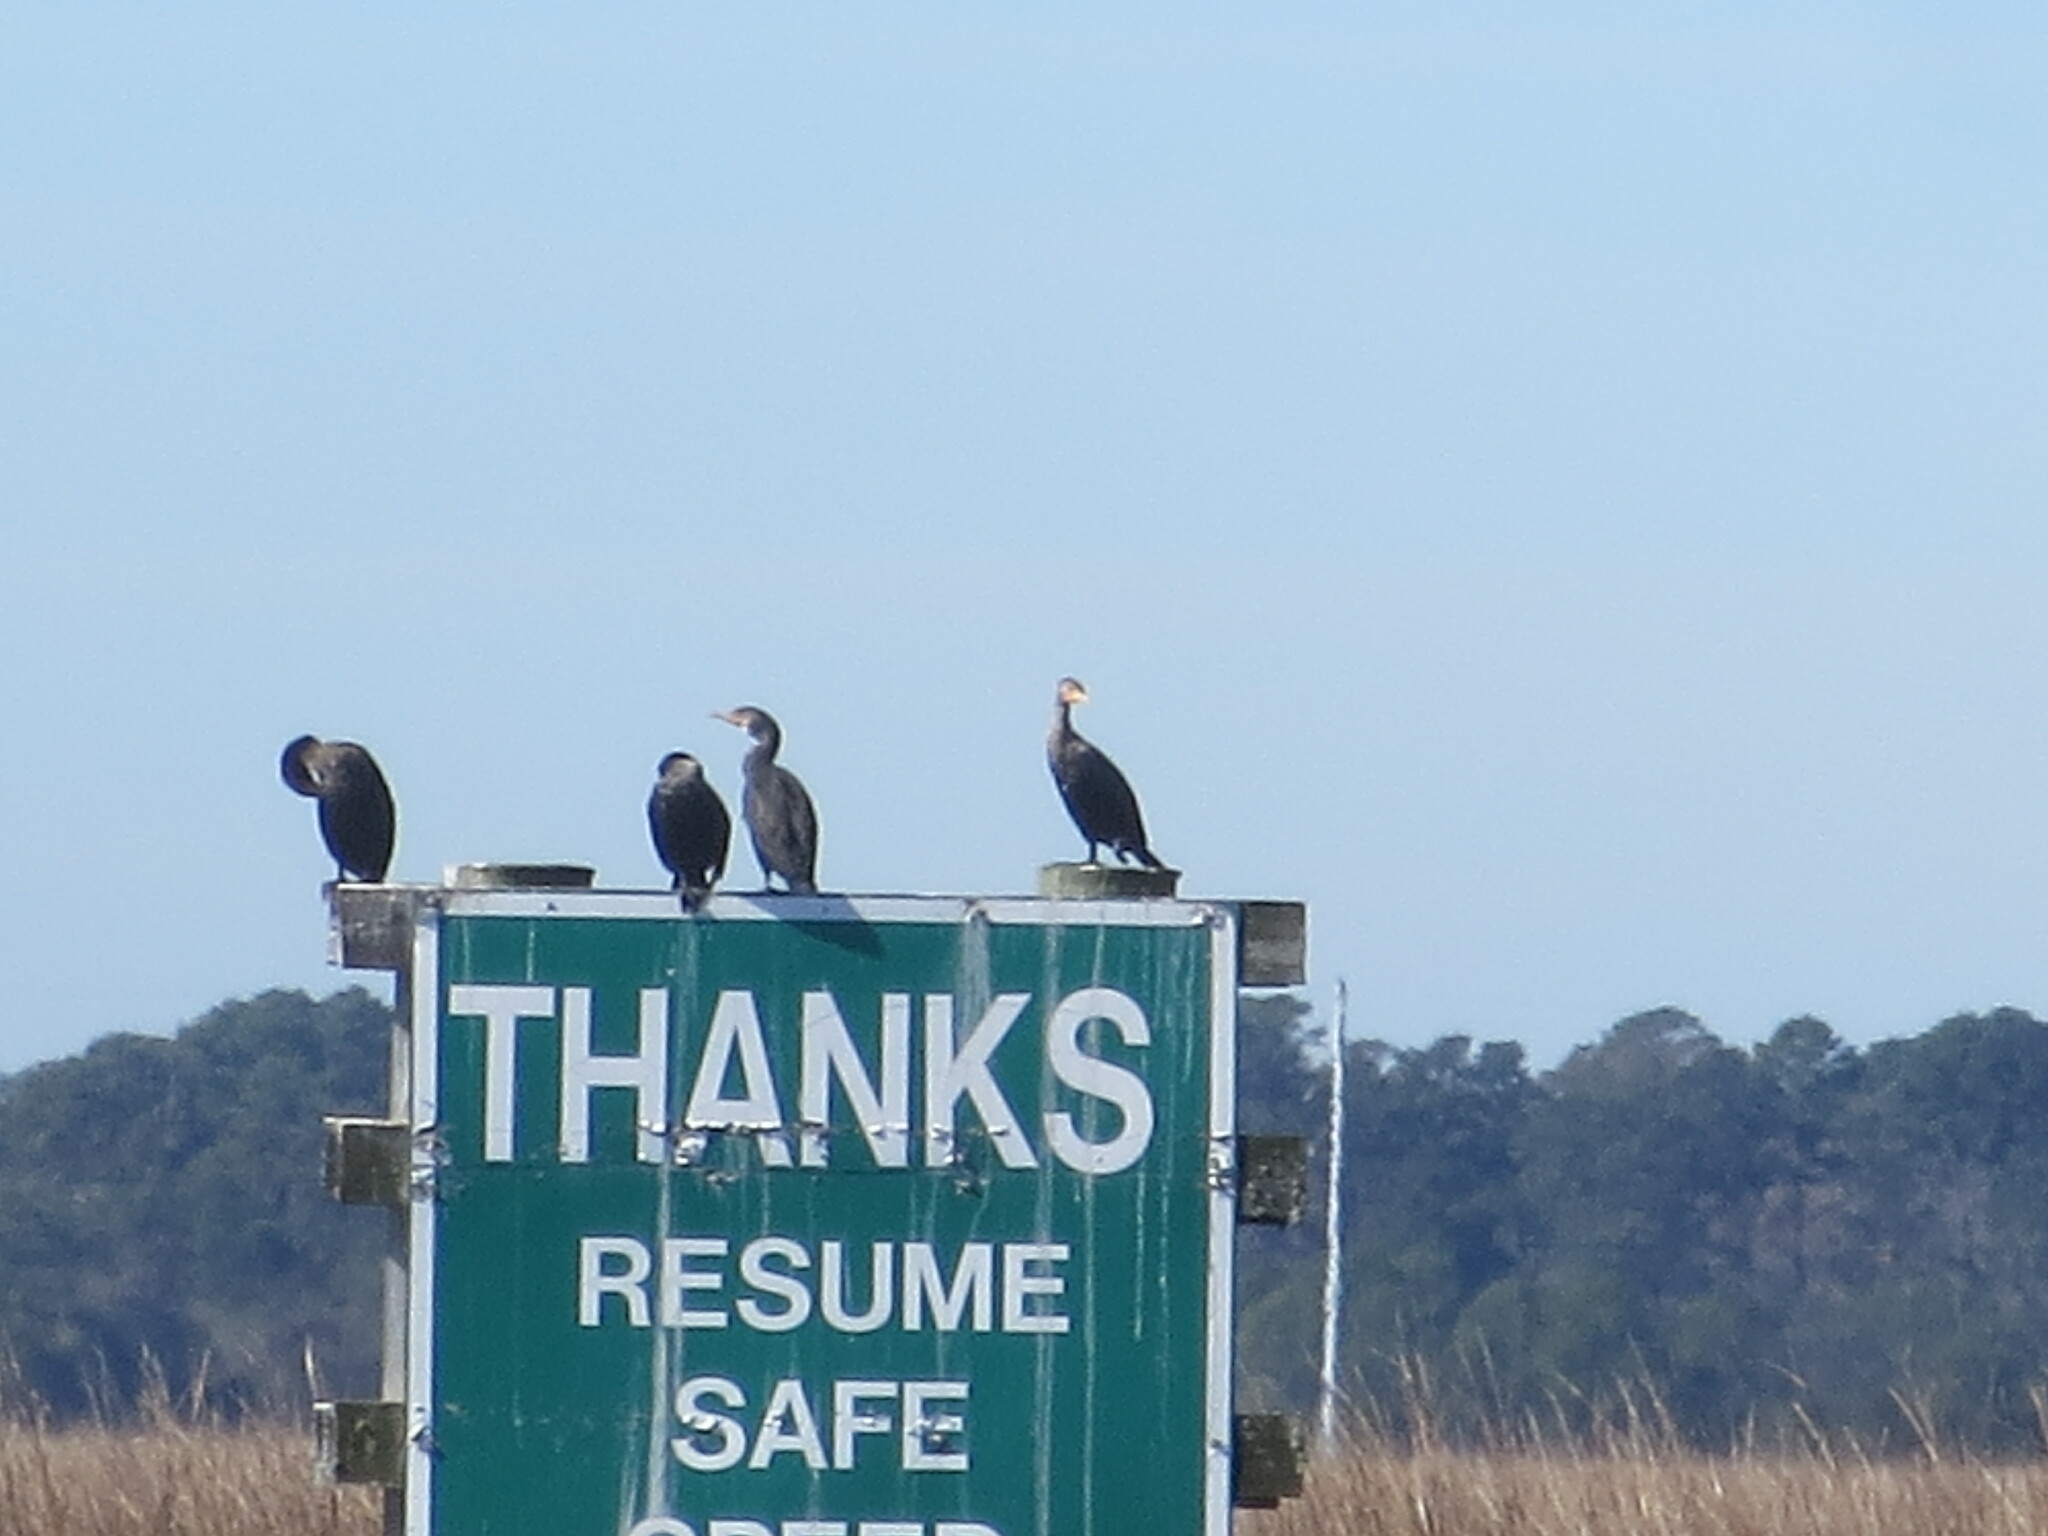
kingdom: Animalia
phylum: Chordata
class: Aves
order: Suliformes
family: Phalacrocoracidae
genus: Phalacrocorax
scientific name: Phalacrocorax auritus
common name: Double-crested cormorant
